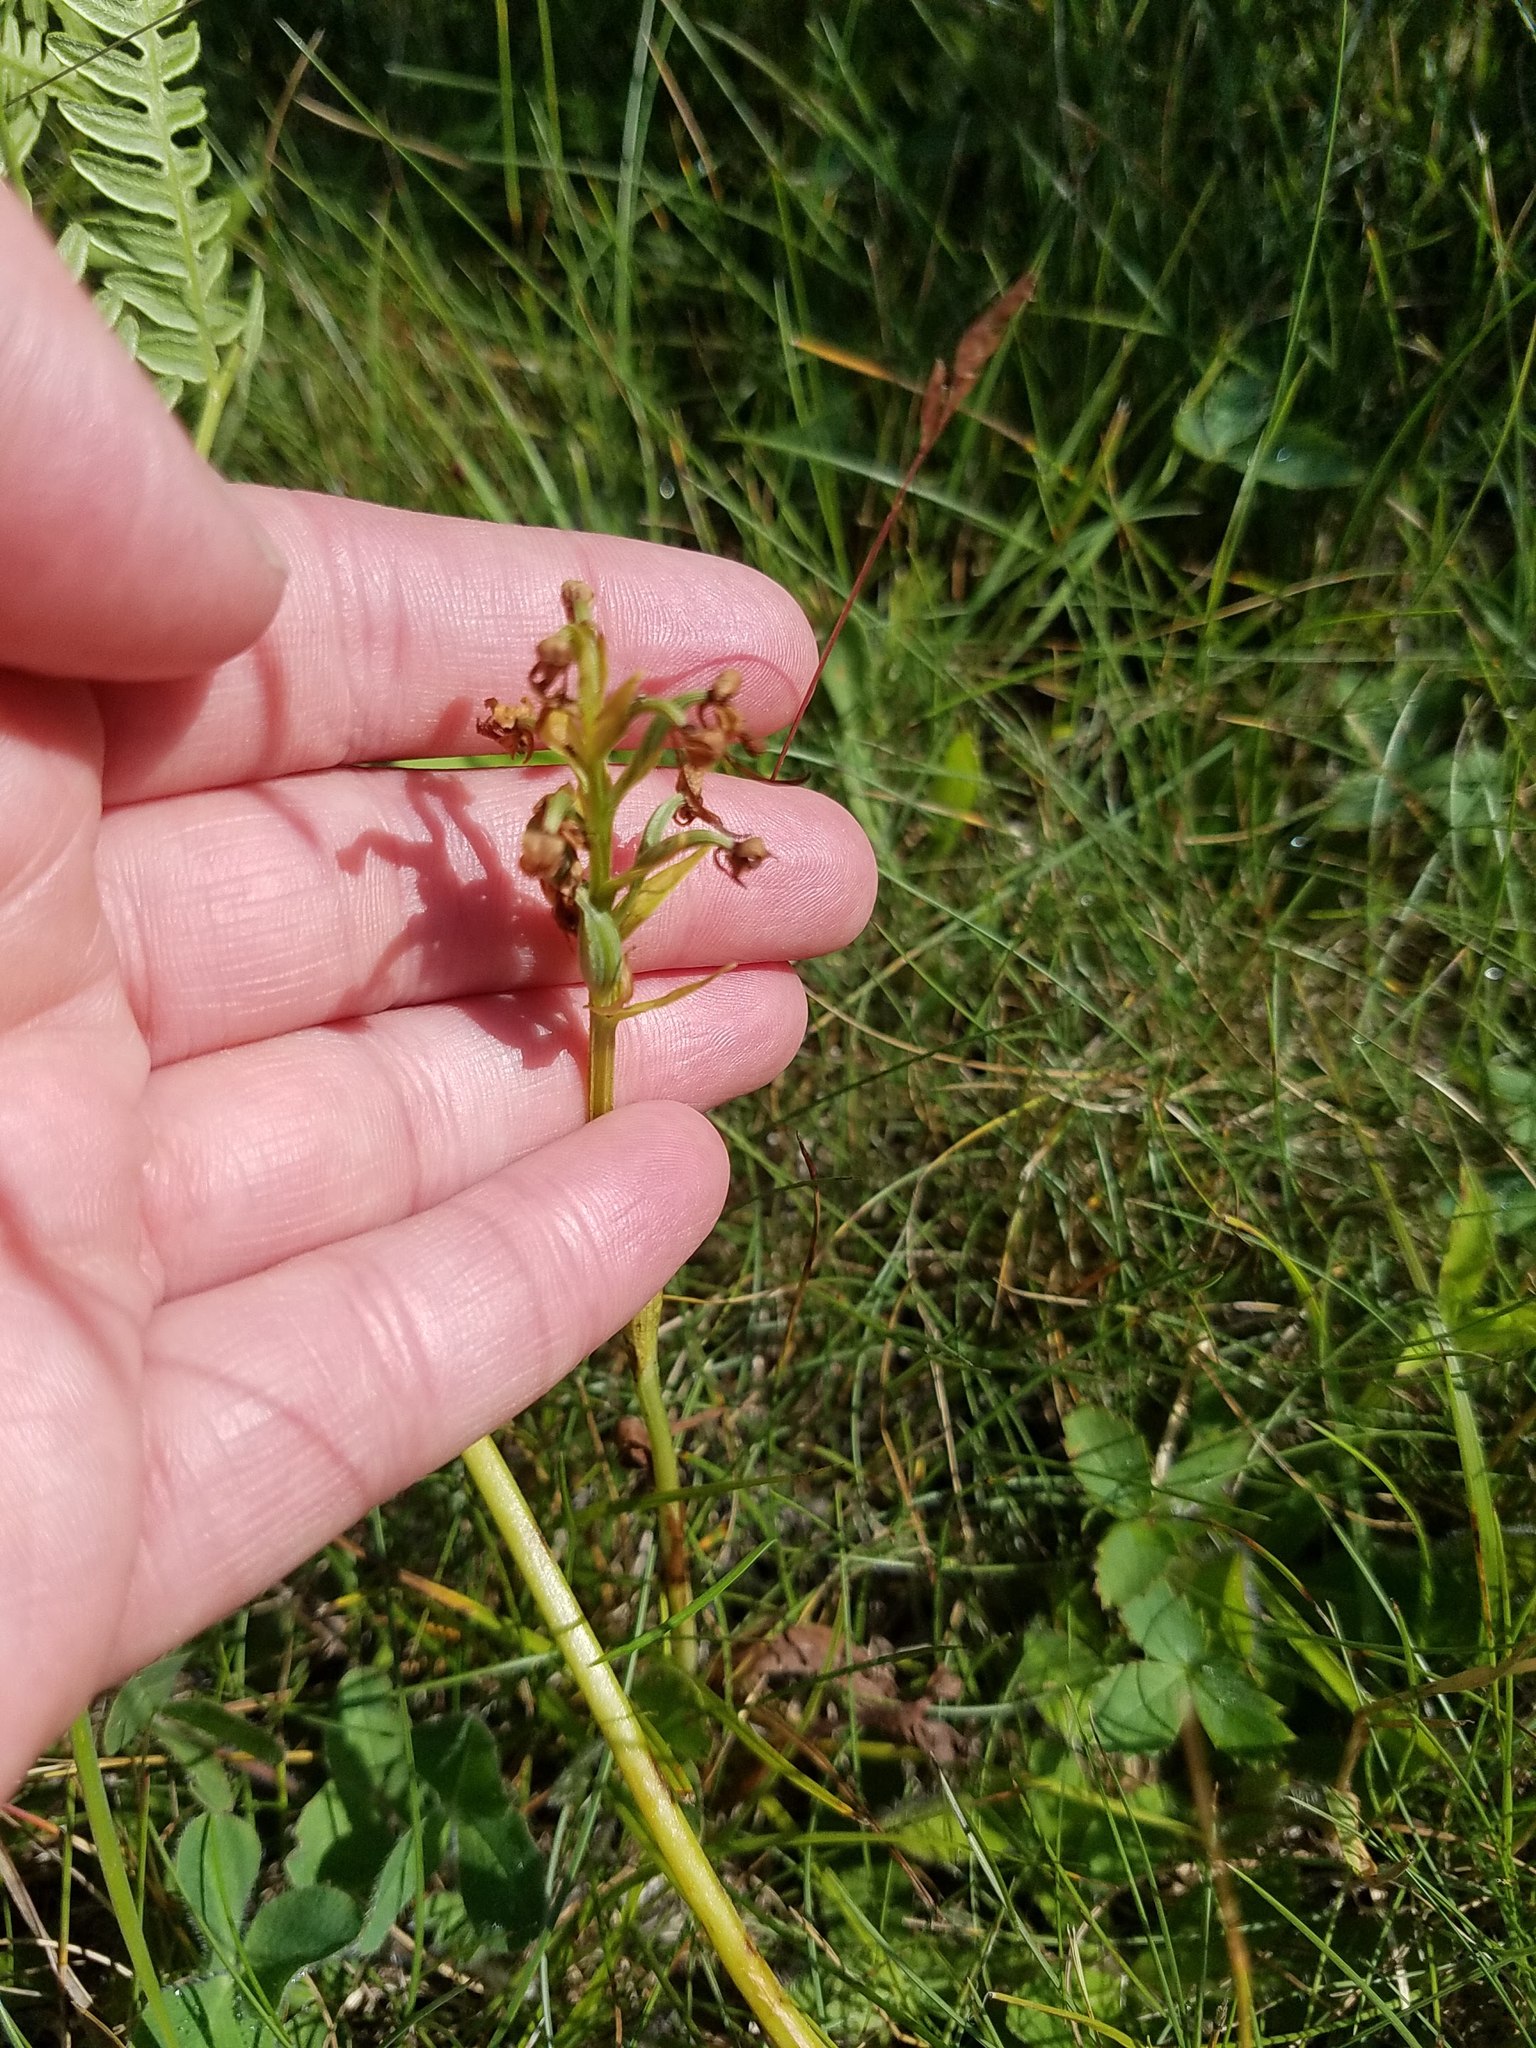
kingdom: Plantae
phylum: Tracheophyta
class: Liliopsida
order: Asparagales
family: Orchidaceae
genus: Platanthera
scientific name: Platanthera clavellata
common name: Club-spur orchid
